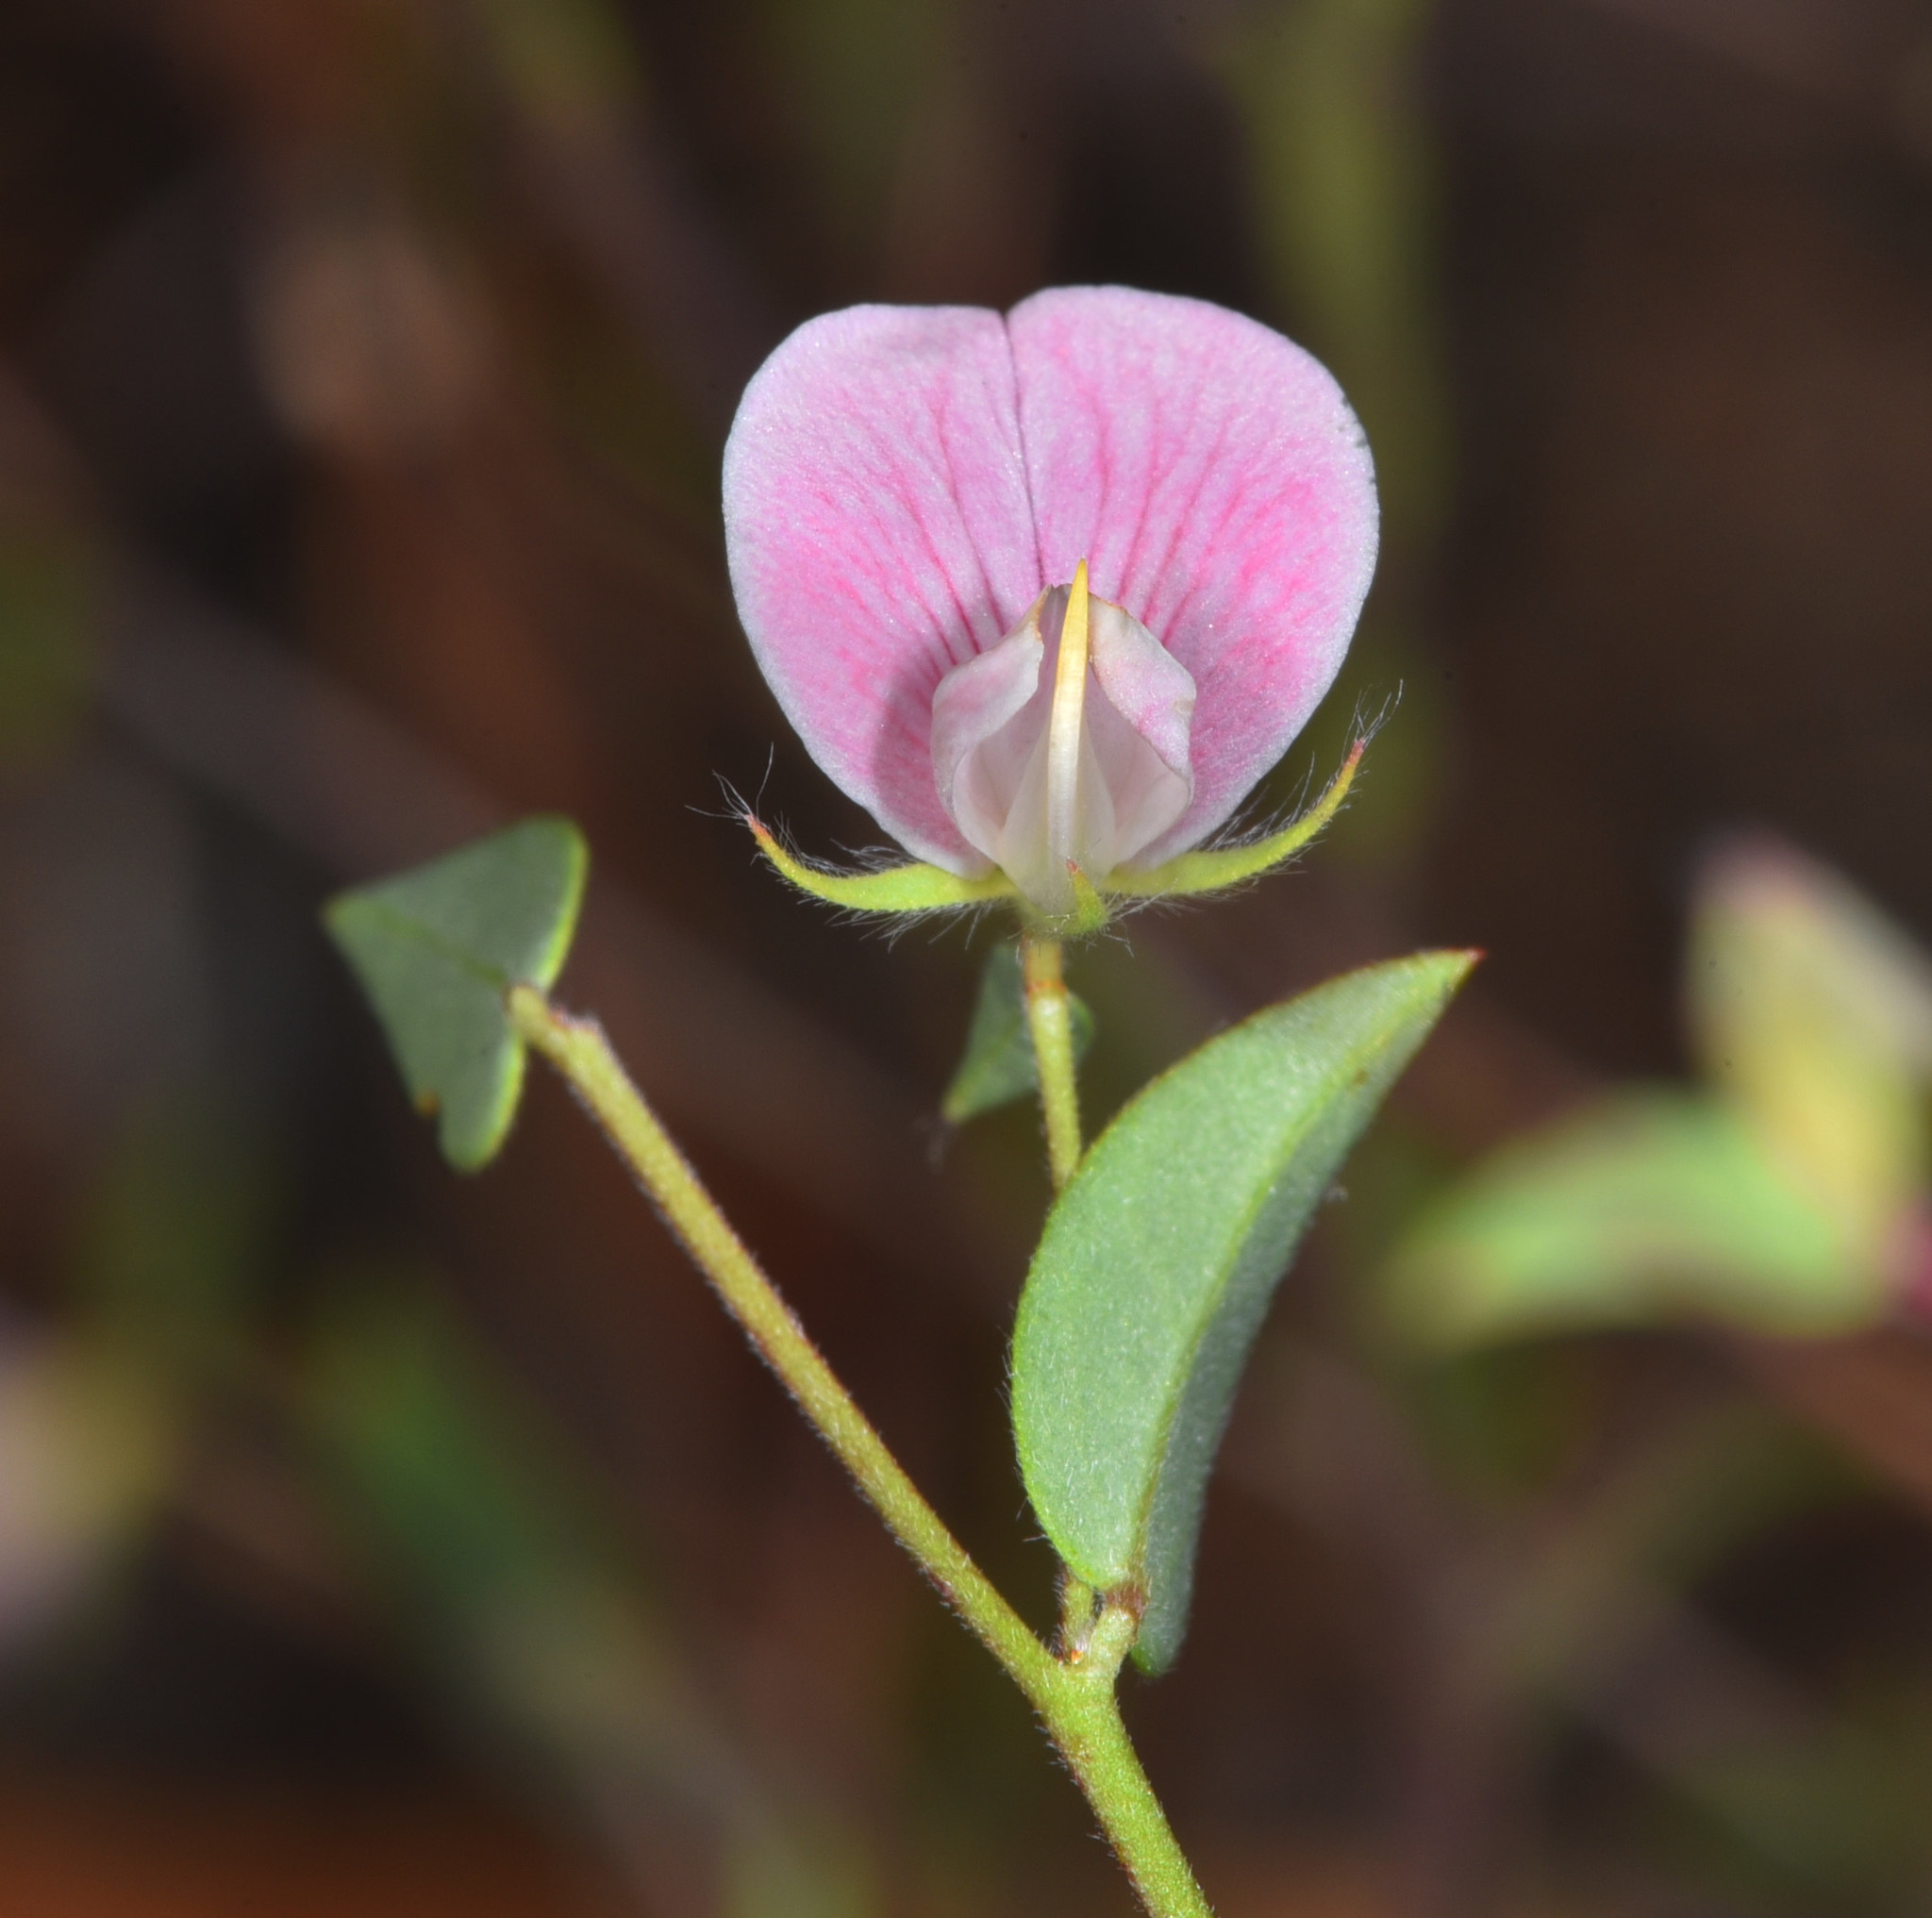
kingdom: Plantae
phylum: Tracheophyta
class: Magnoliopsida
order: Fabales
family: Fabaceae
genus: Acmispon
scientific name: Acmispon americanus
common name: American bird's-foot trefoil
